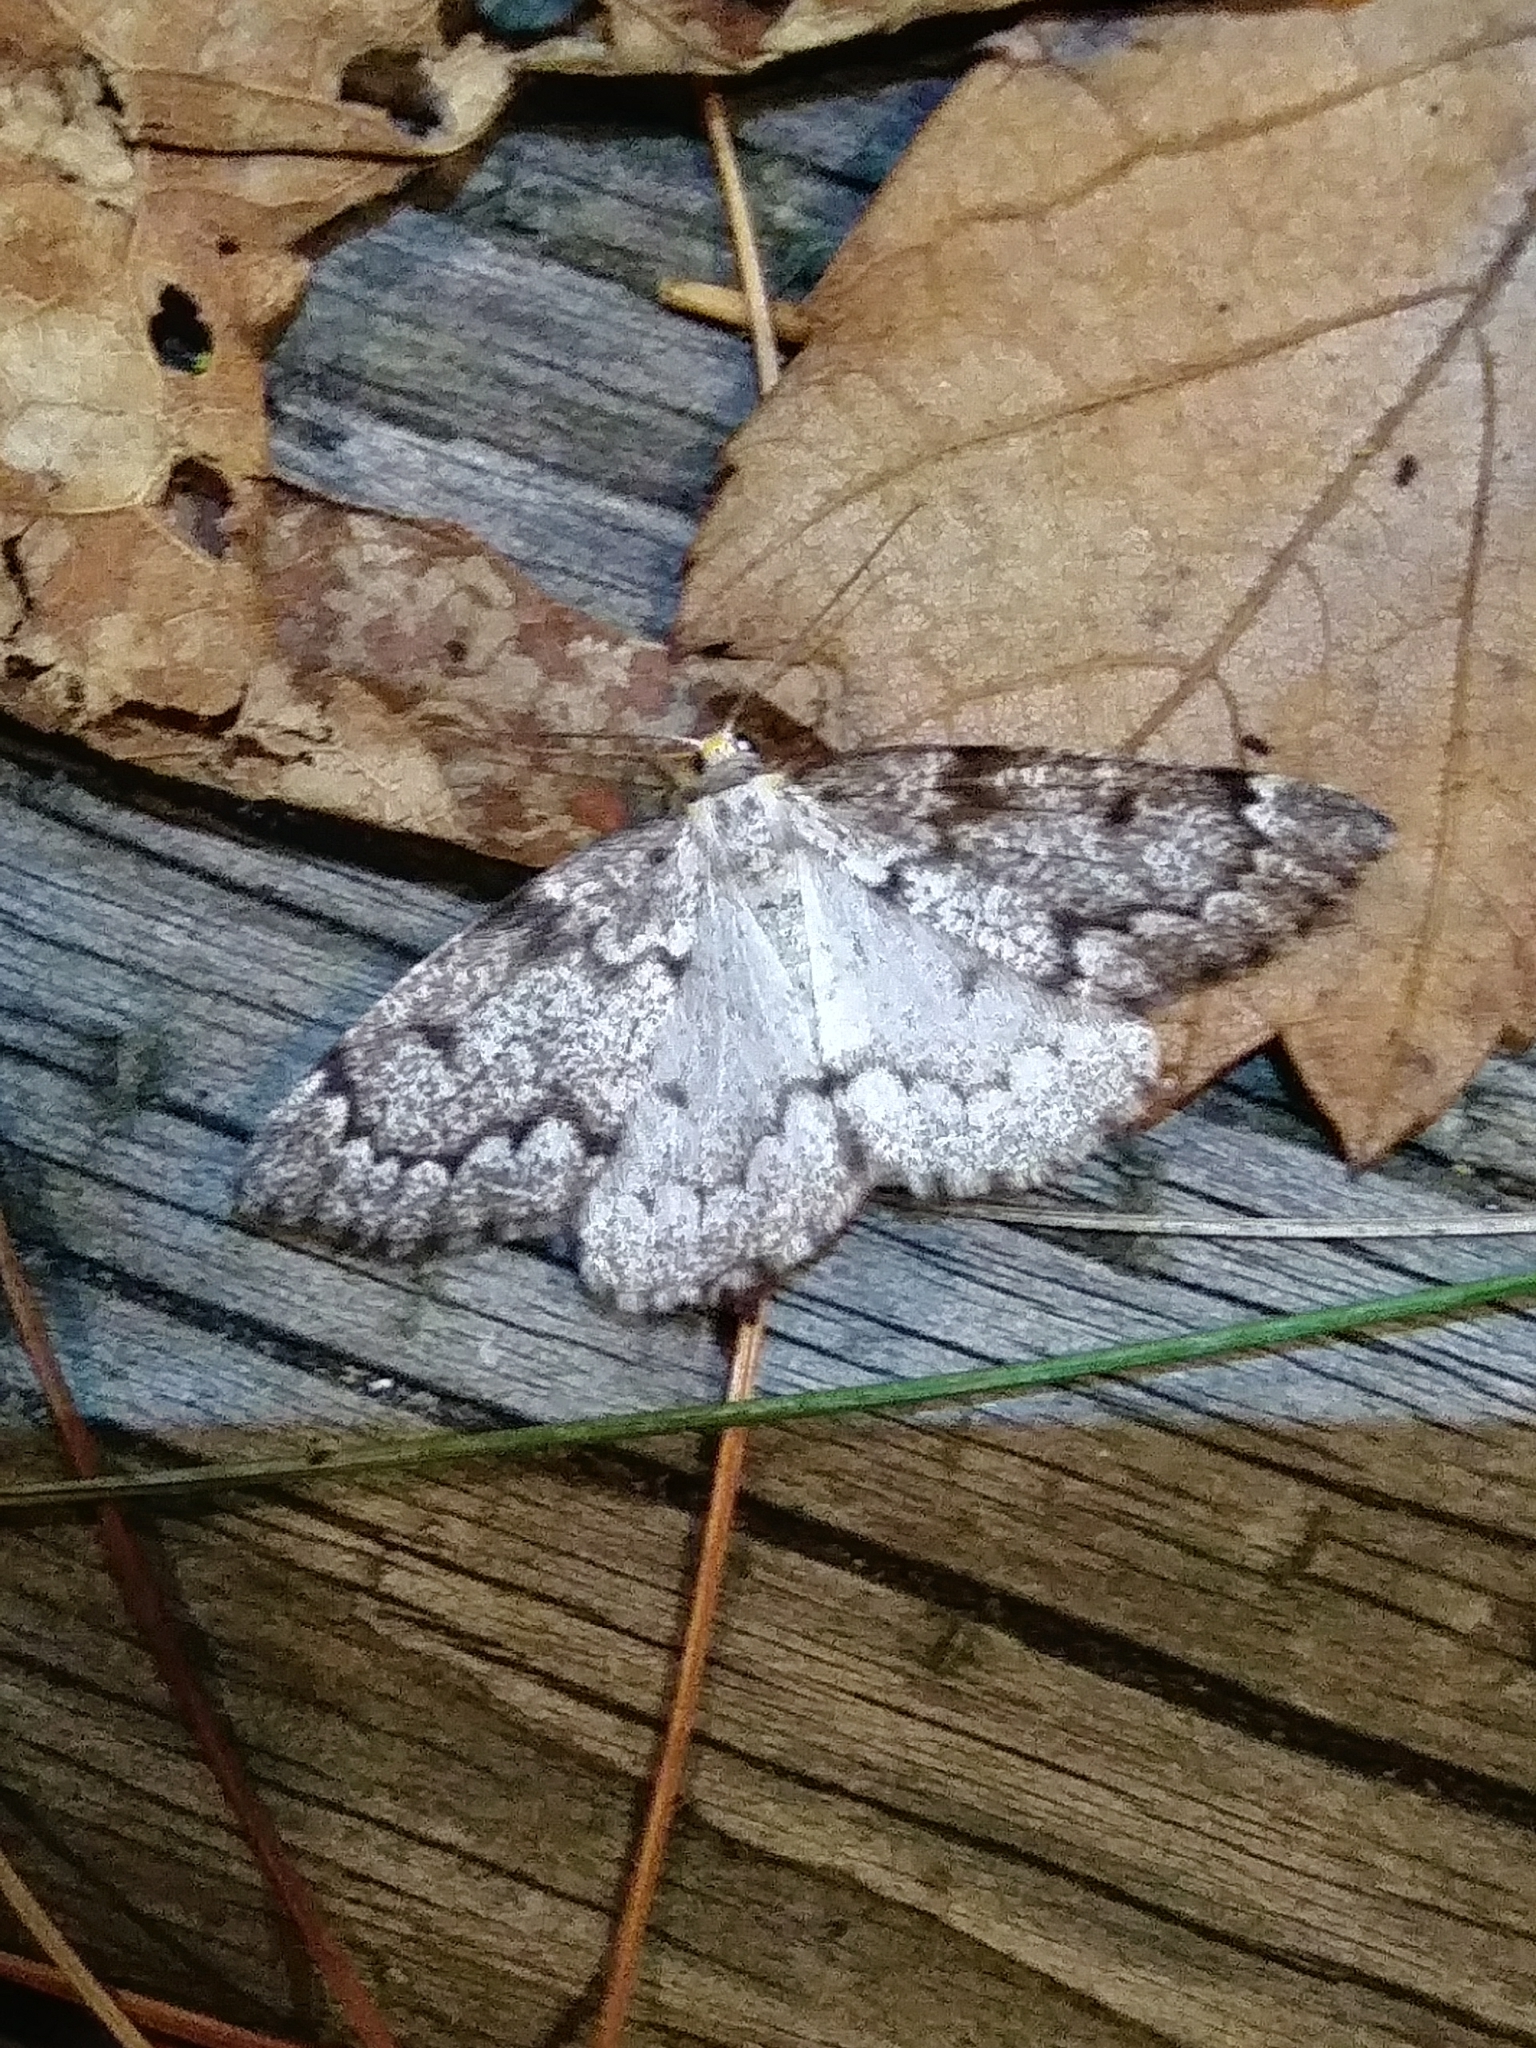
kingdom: Animalia
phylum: Arthropoda
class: Insecta
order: Lepidoptera
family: Geometridae
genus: Nepytia
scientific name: Nepytia canosaria
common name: False hemlock looper
